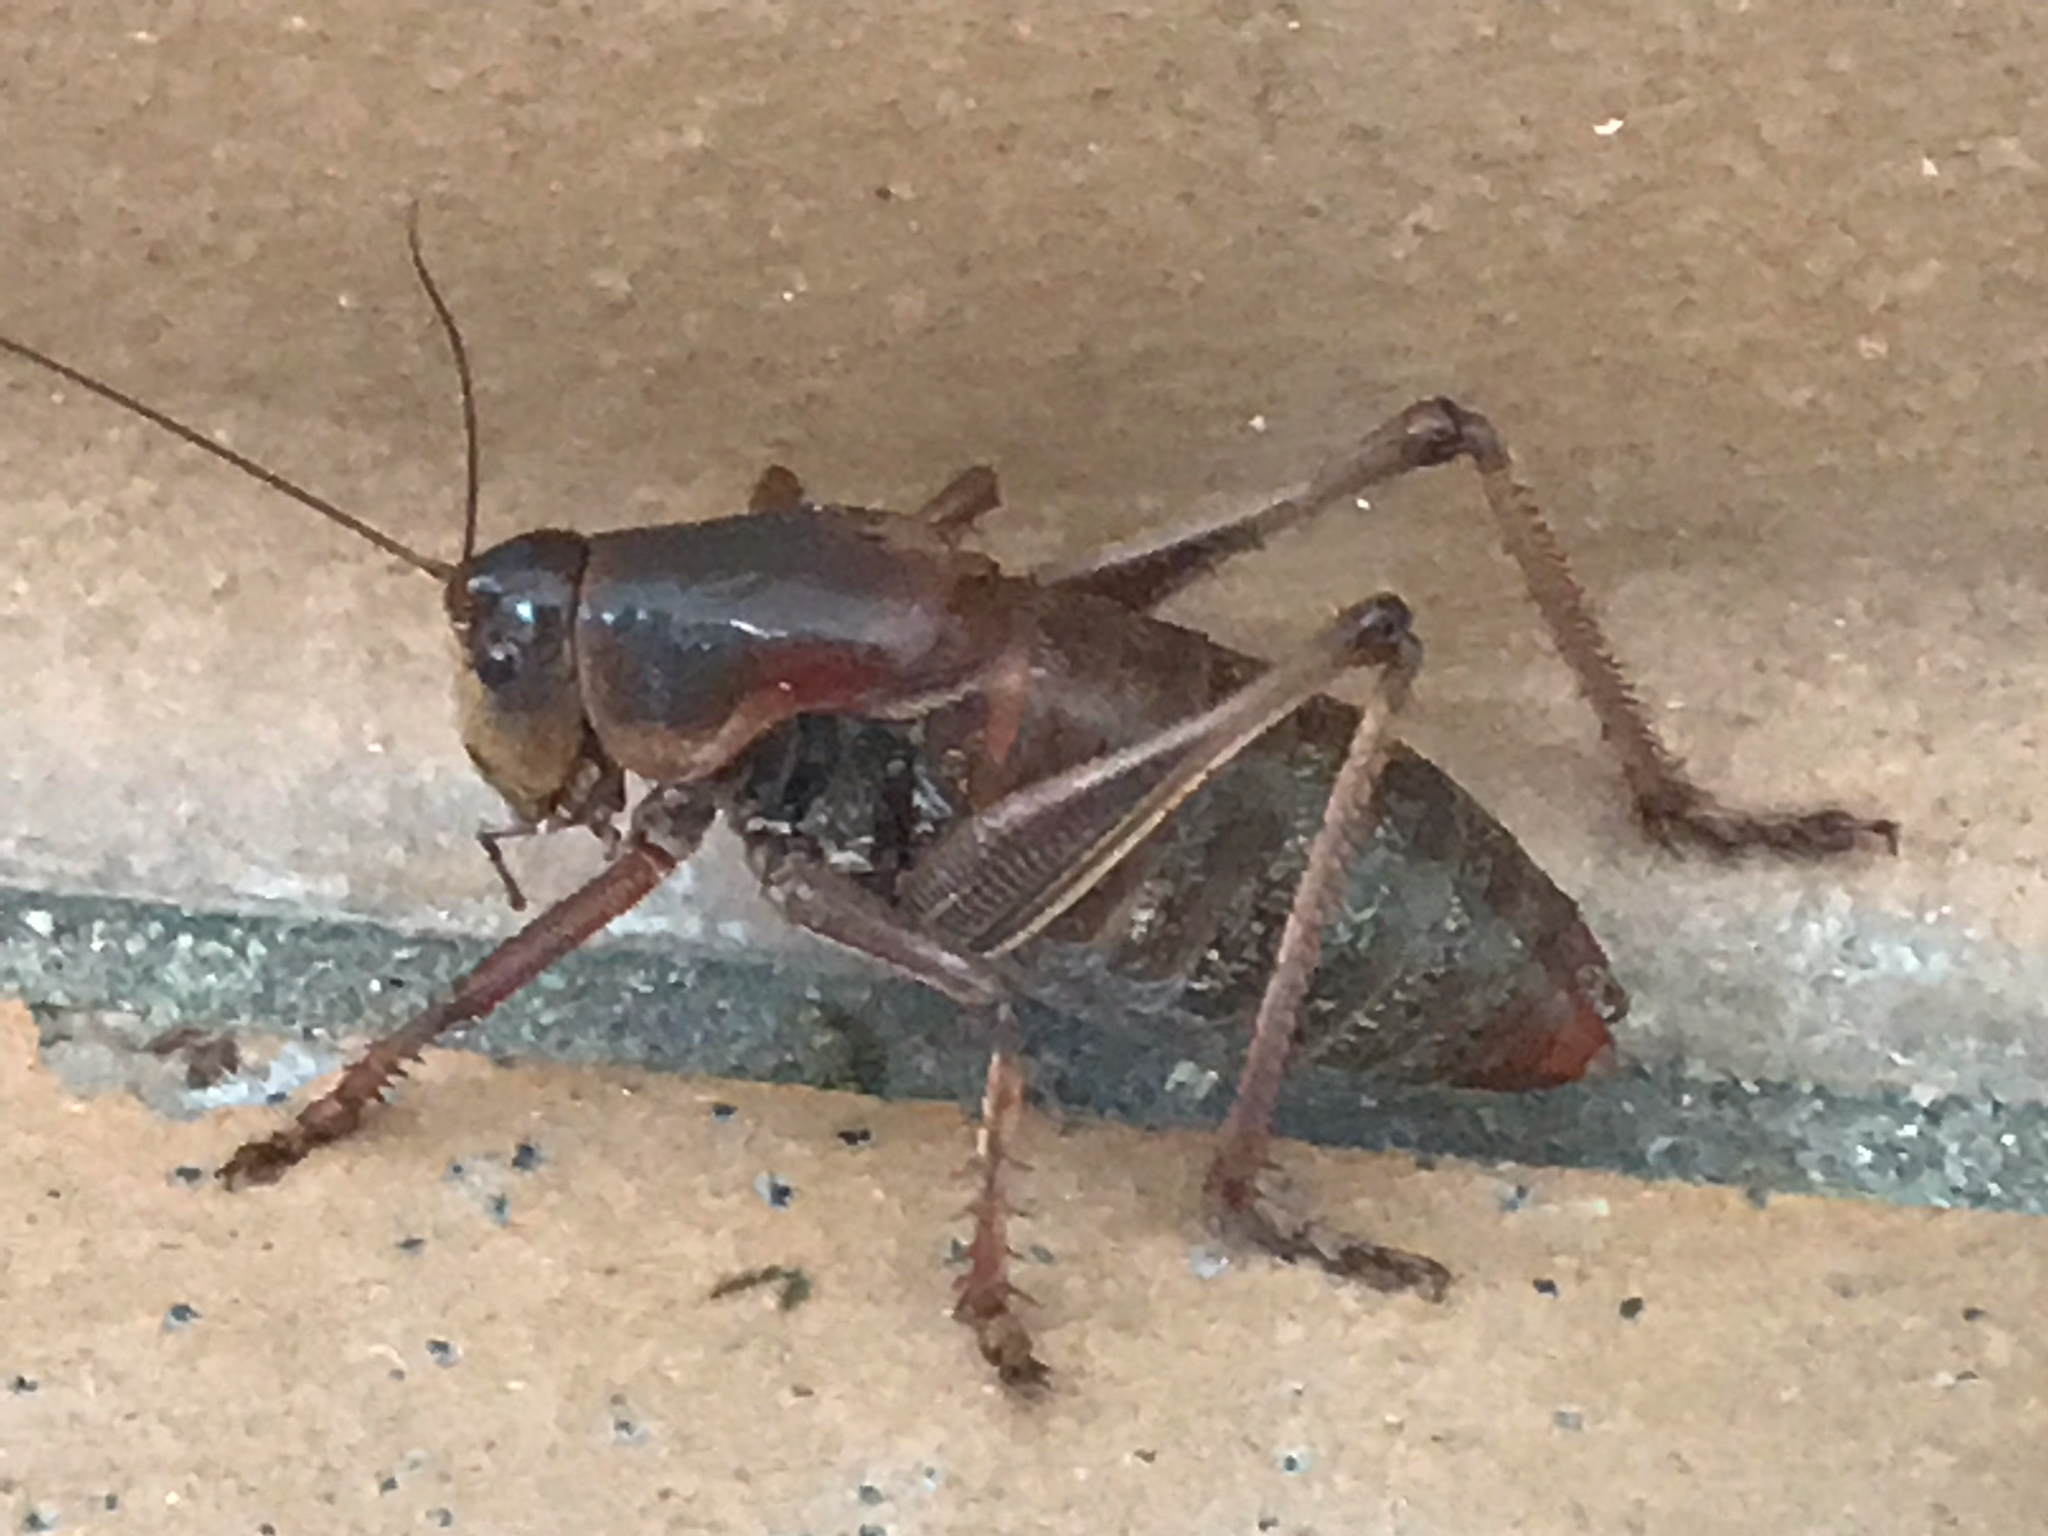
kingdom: Animalia
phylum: Arthropoda
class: Insecta
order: Orthoptera
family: Tettigoniidae
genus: Anabrus
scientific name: Anabrus simplex
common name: Mormon cricket
